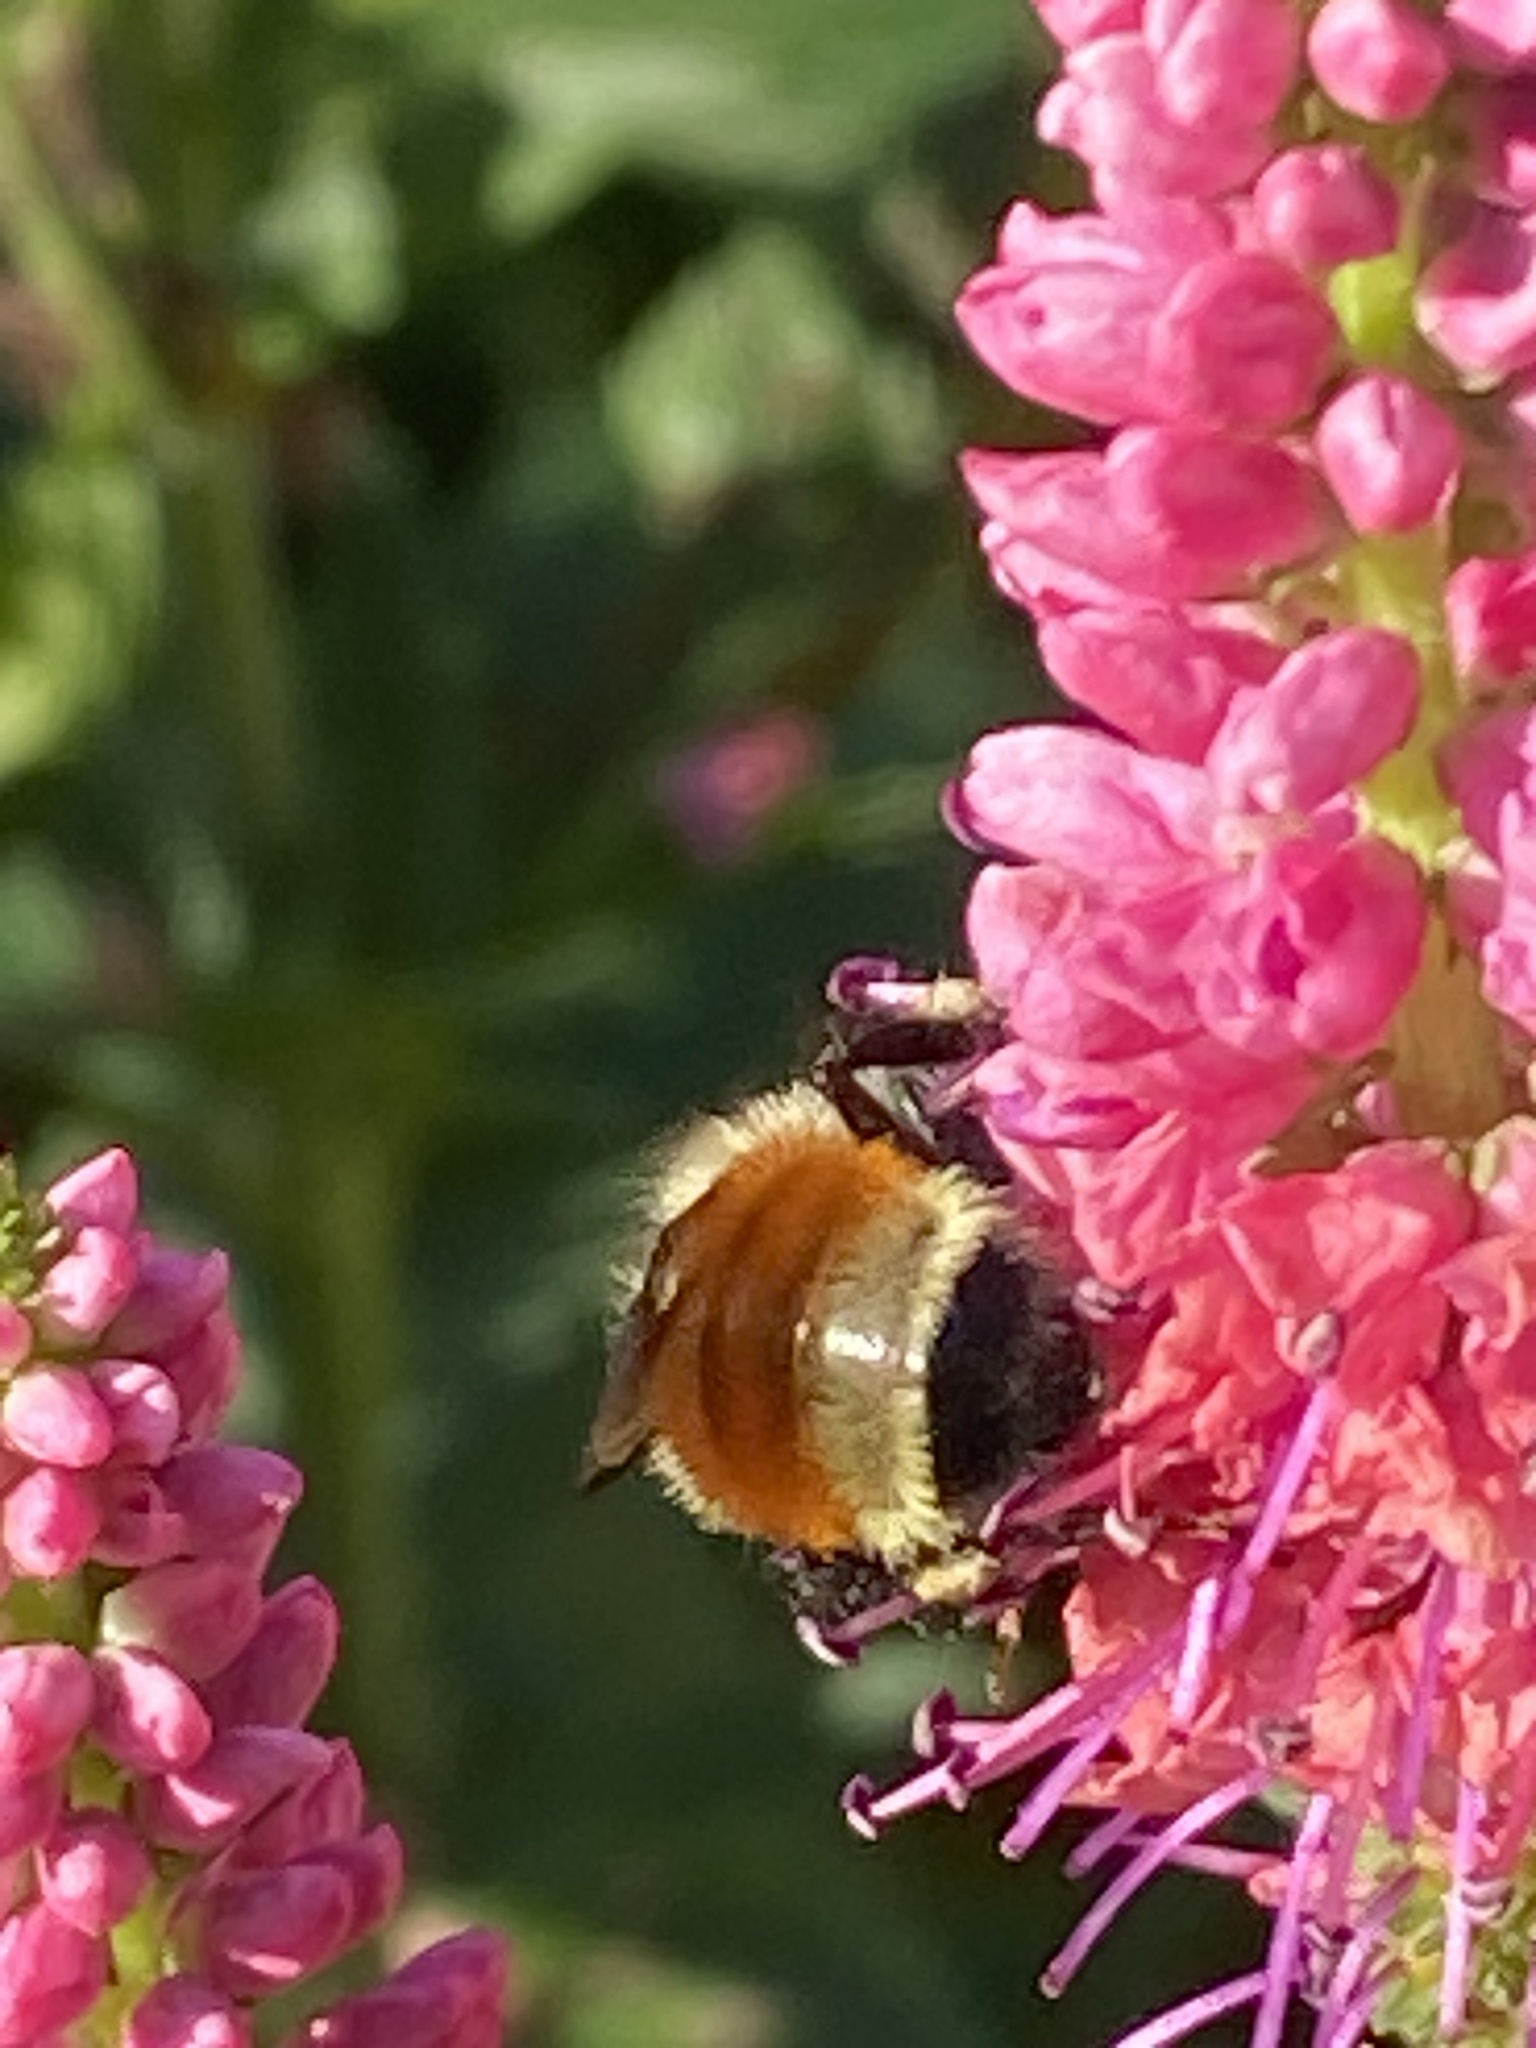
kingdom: Animalia
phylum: Arthropoda
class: Insecta
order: Hymenoptera
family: Apidae
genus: Bombus
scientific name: Bombus ternarius
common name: Tri-colored bumble bee
